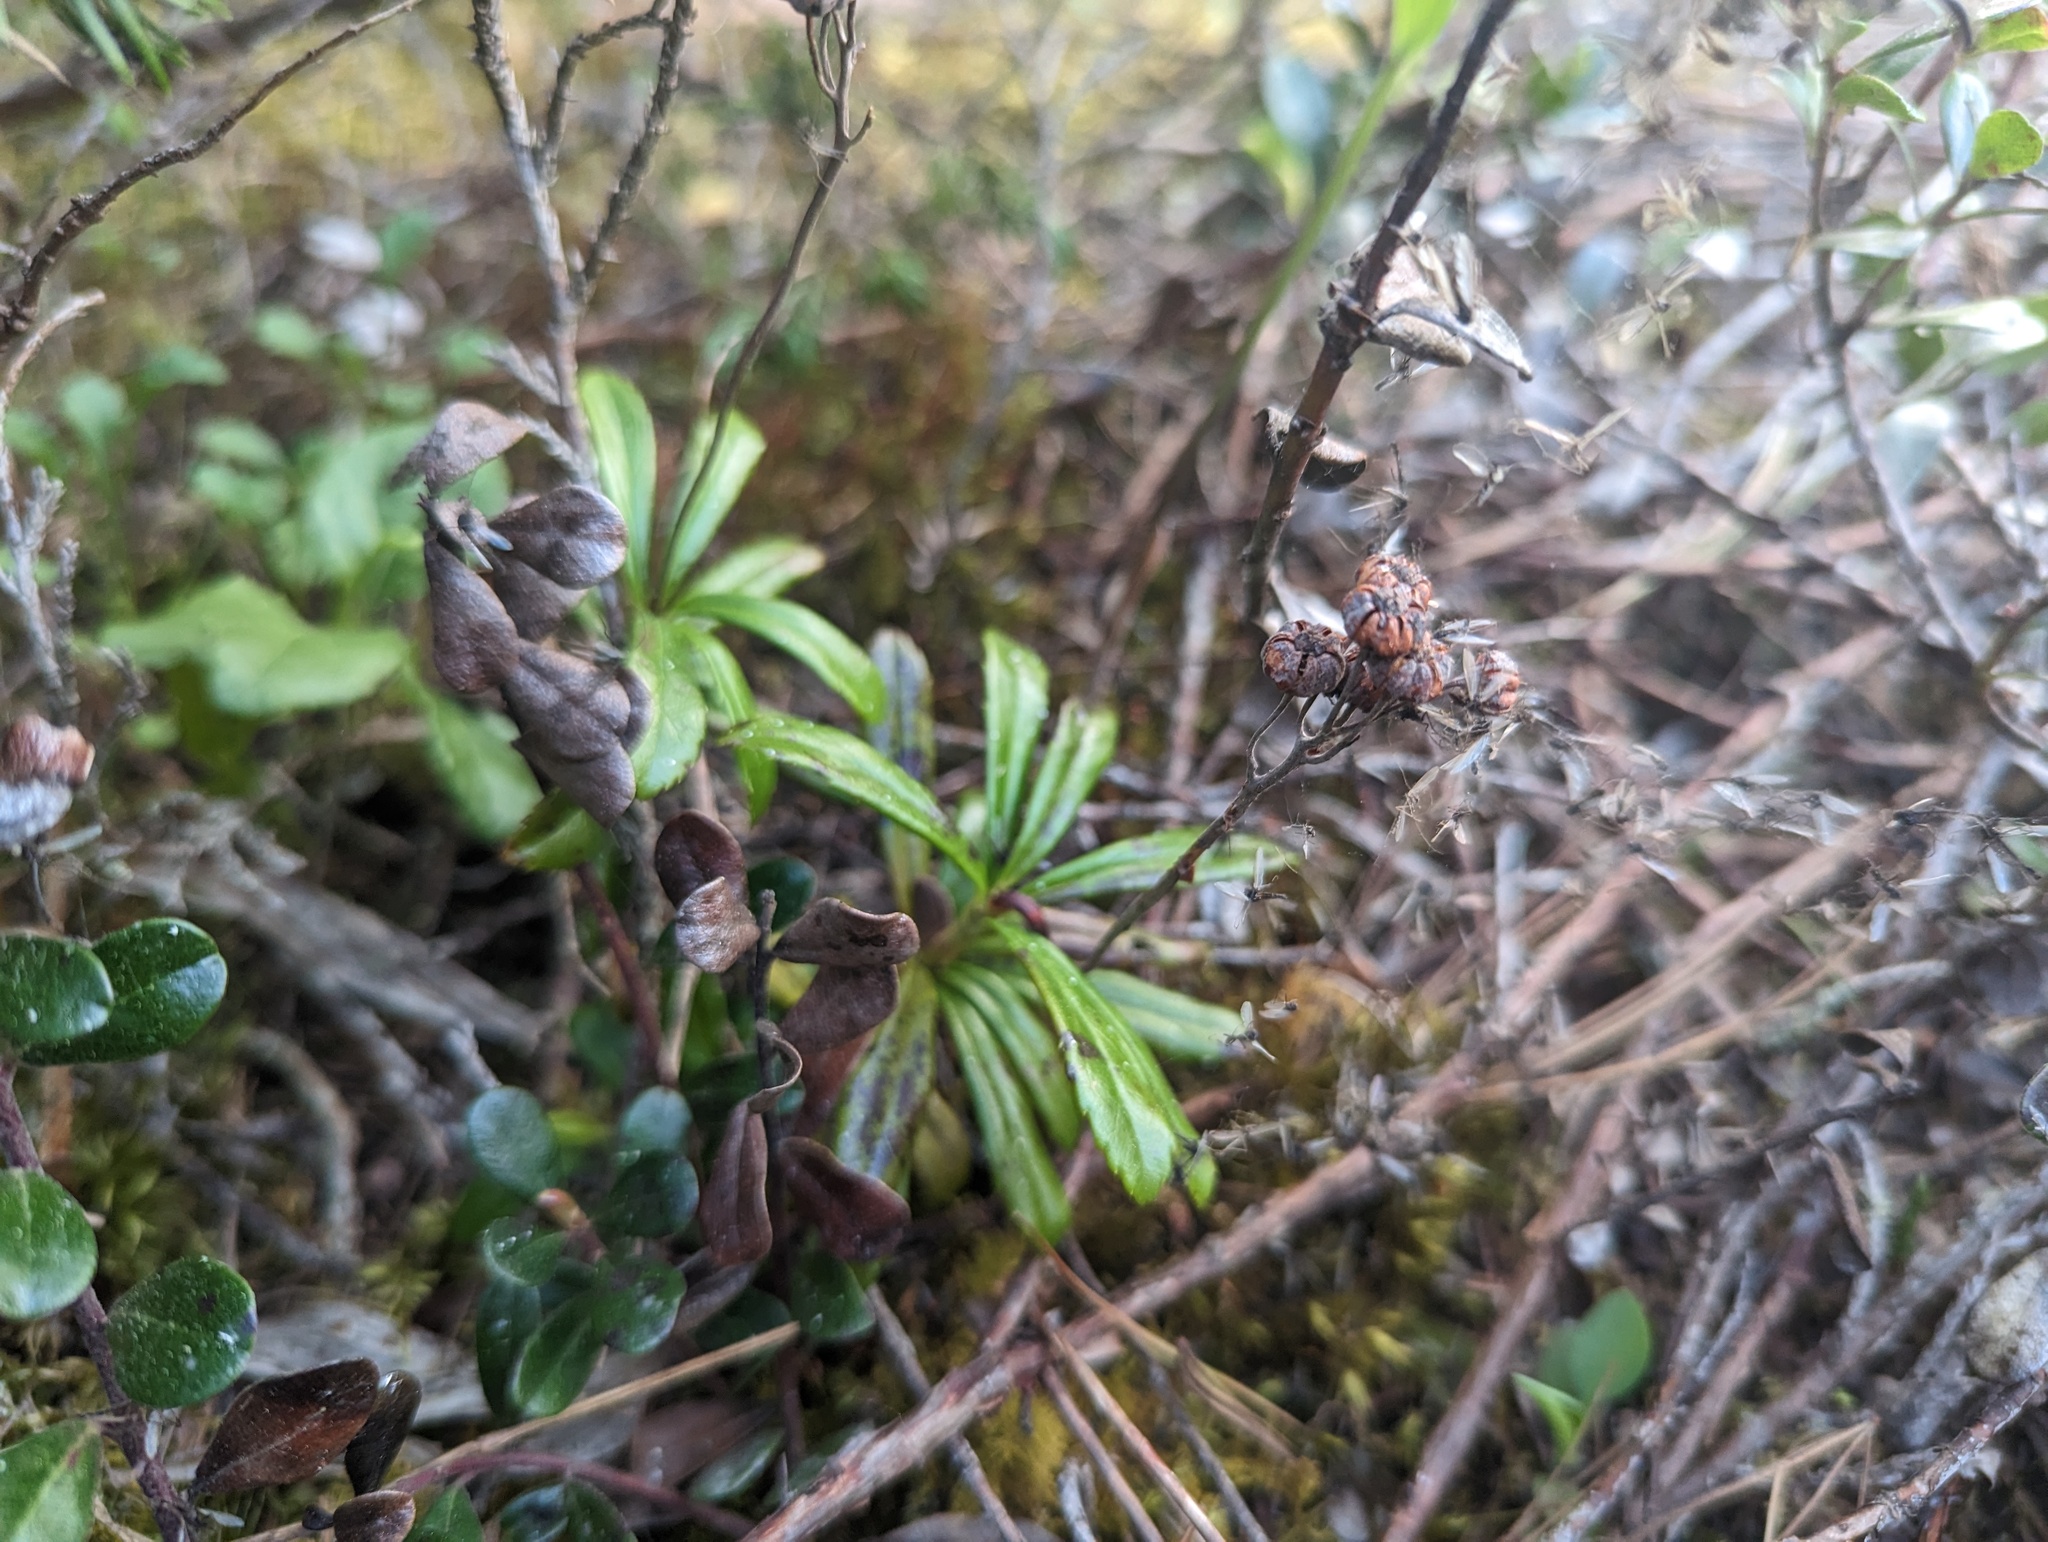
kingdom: Plantae
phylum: Tracheophyta
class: Magnoliopsida
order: Ericales
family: Ericaceae
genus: Chimaphila
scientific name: Chimaphila umbellata
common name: Pipsissewa
